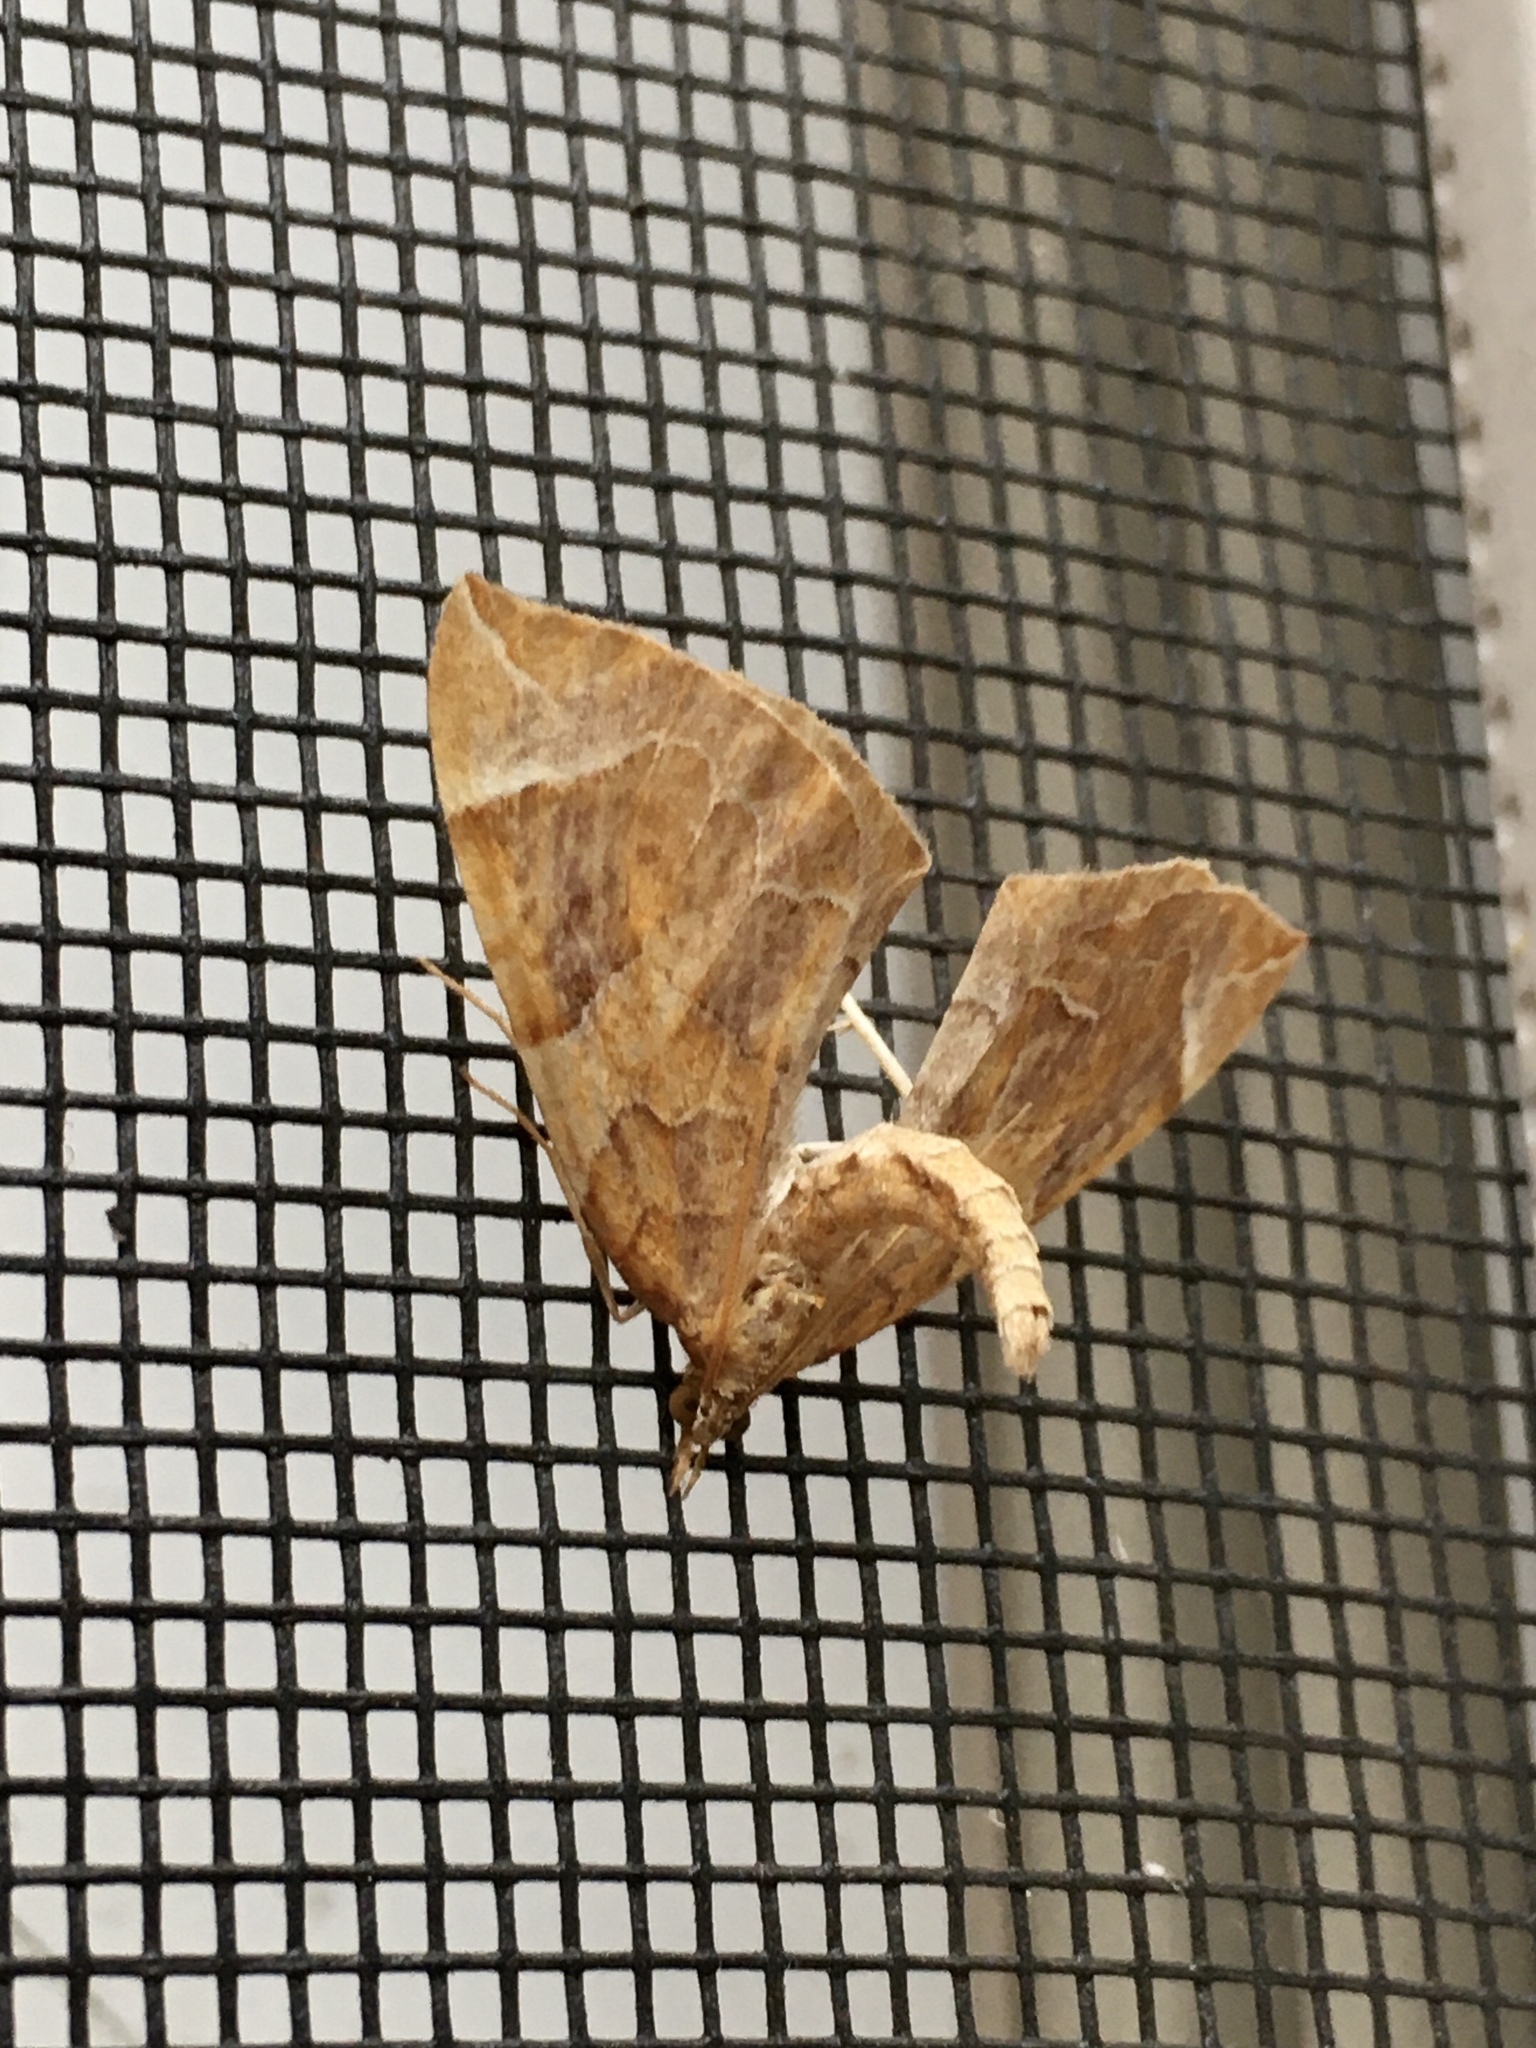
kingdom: Animalia
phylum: Arthropoda
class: Insecta
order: Lepidoptera
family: Geometridae
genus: Eulithis
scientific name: Eulithis testata
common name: Chevron
